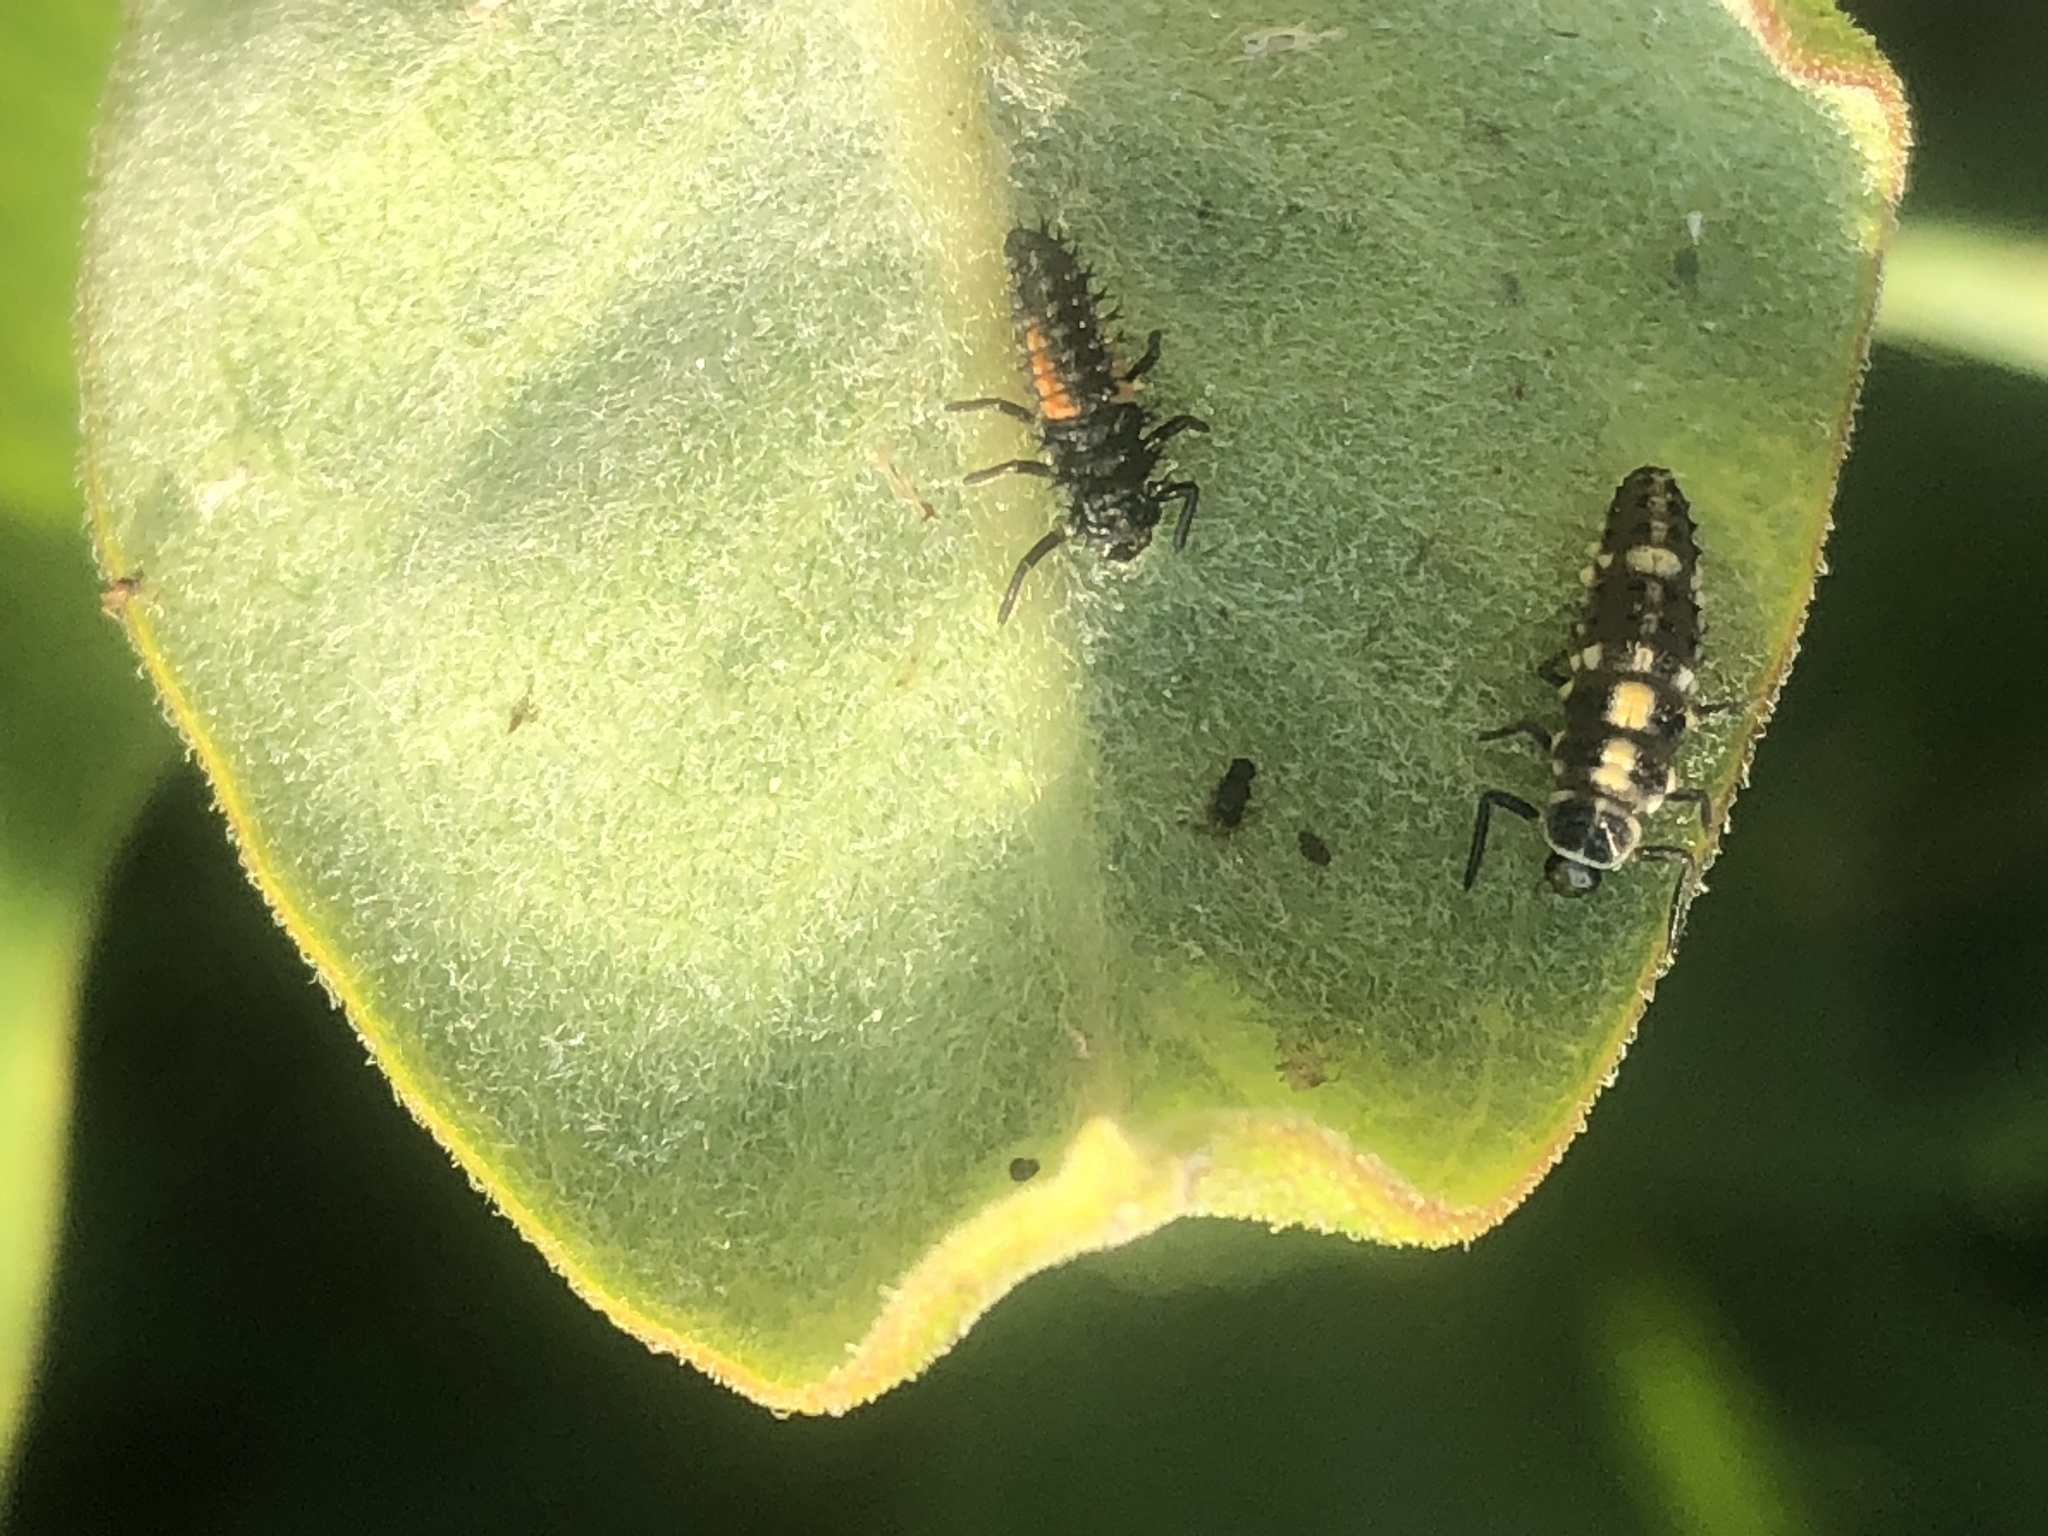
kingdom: Animalia
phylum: Arthropoda
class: Insecta
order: Coleoptera
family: Coccinellidae
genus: Propylaea
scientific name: Propylaea quatuordecimpunctata
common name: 14-spotted ladybird beetle
